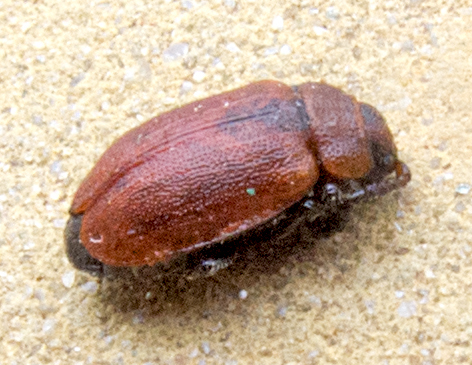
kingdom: Animalia
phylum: Arthropoda
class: Insecta
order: Coleoptera
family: Chrysomelidae
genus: Emarhopa
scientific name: Emarhopa rufa
